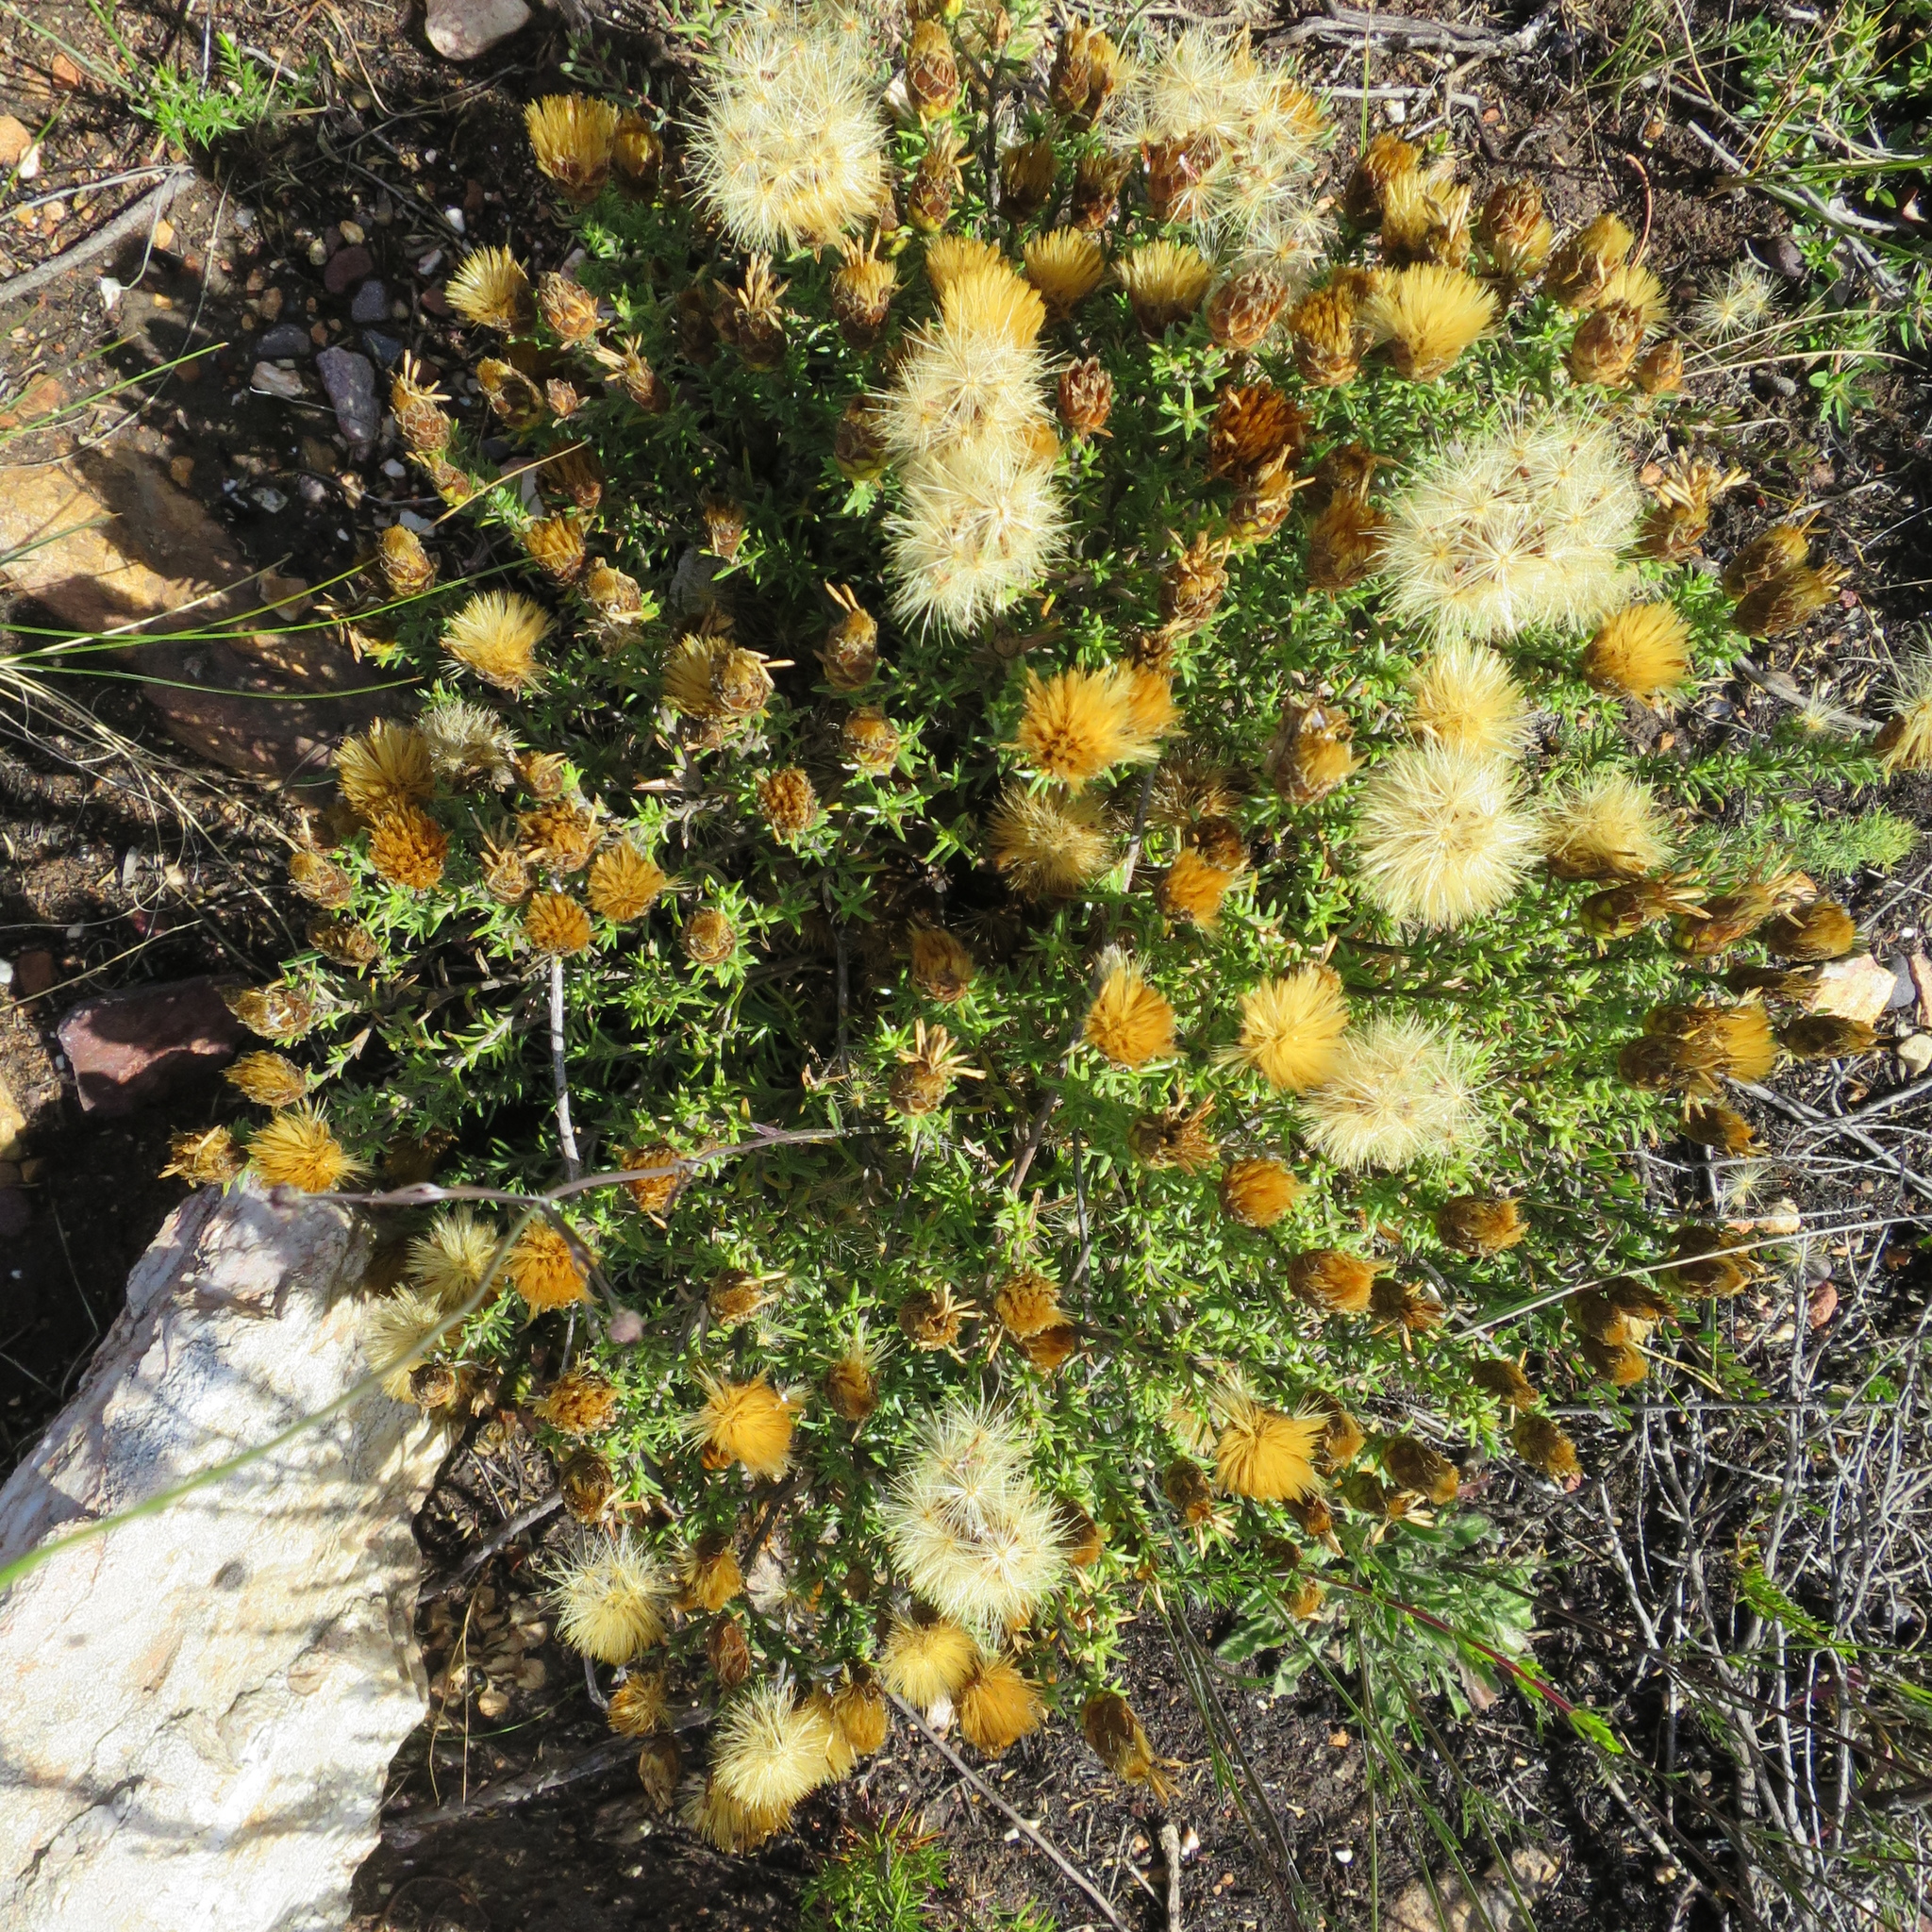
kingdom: Plantae
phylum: Tracheophyta
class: Magnoliopsida
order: Asterales
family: Asteraceae
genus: Pteronia
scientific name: Pteronia hutchinsoniana
